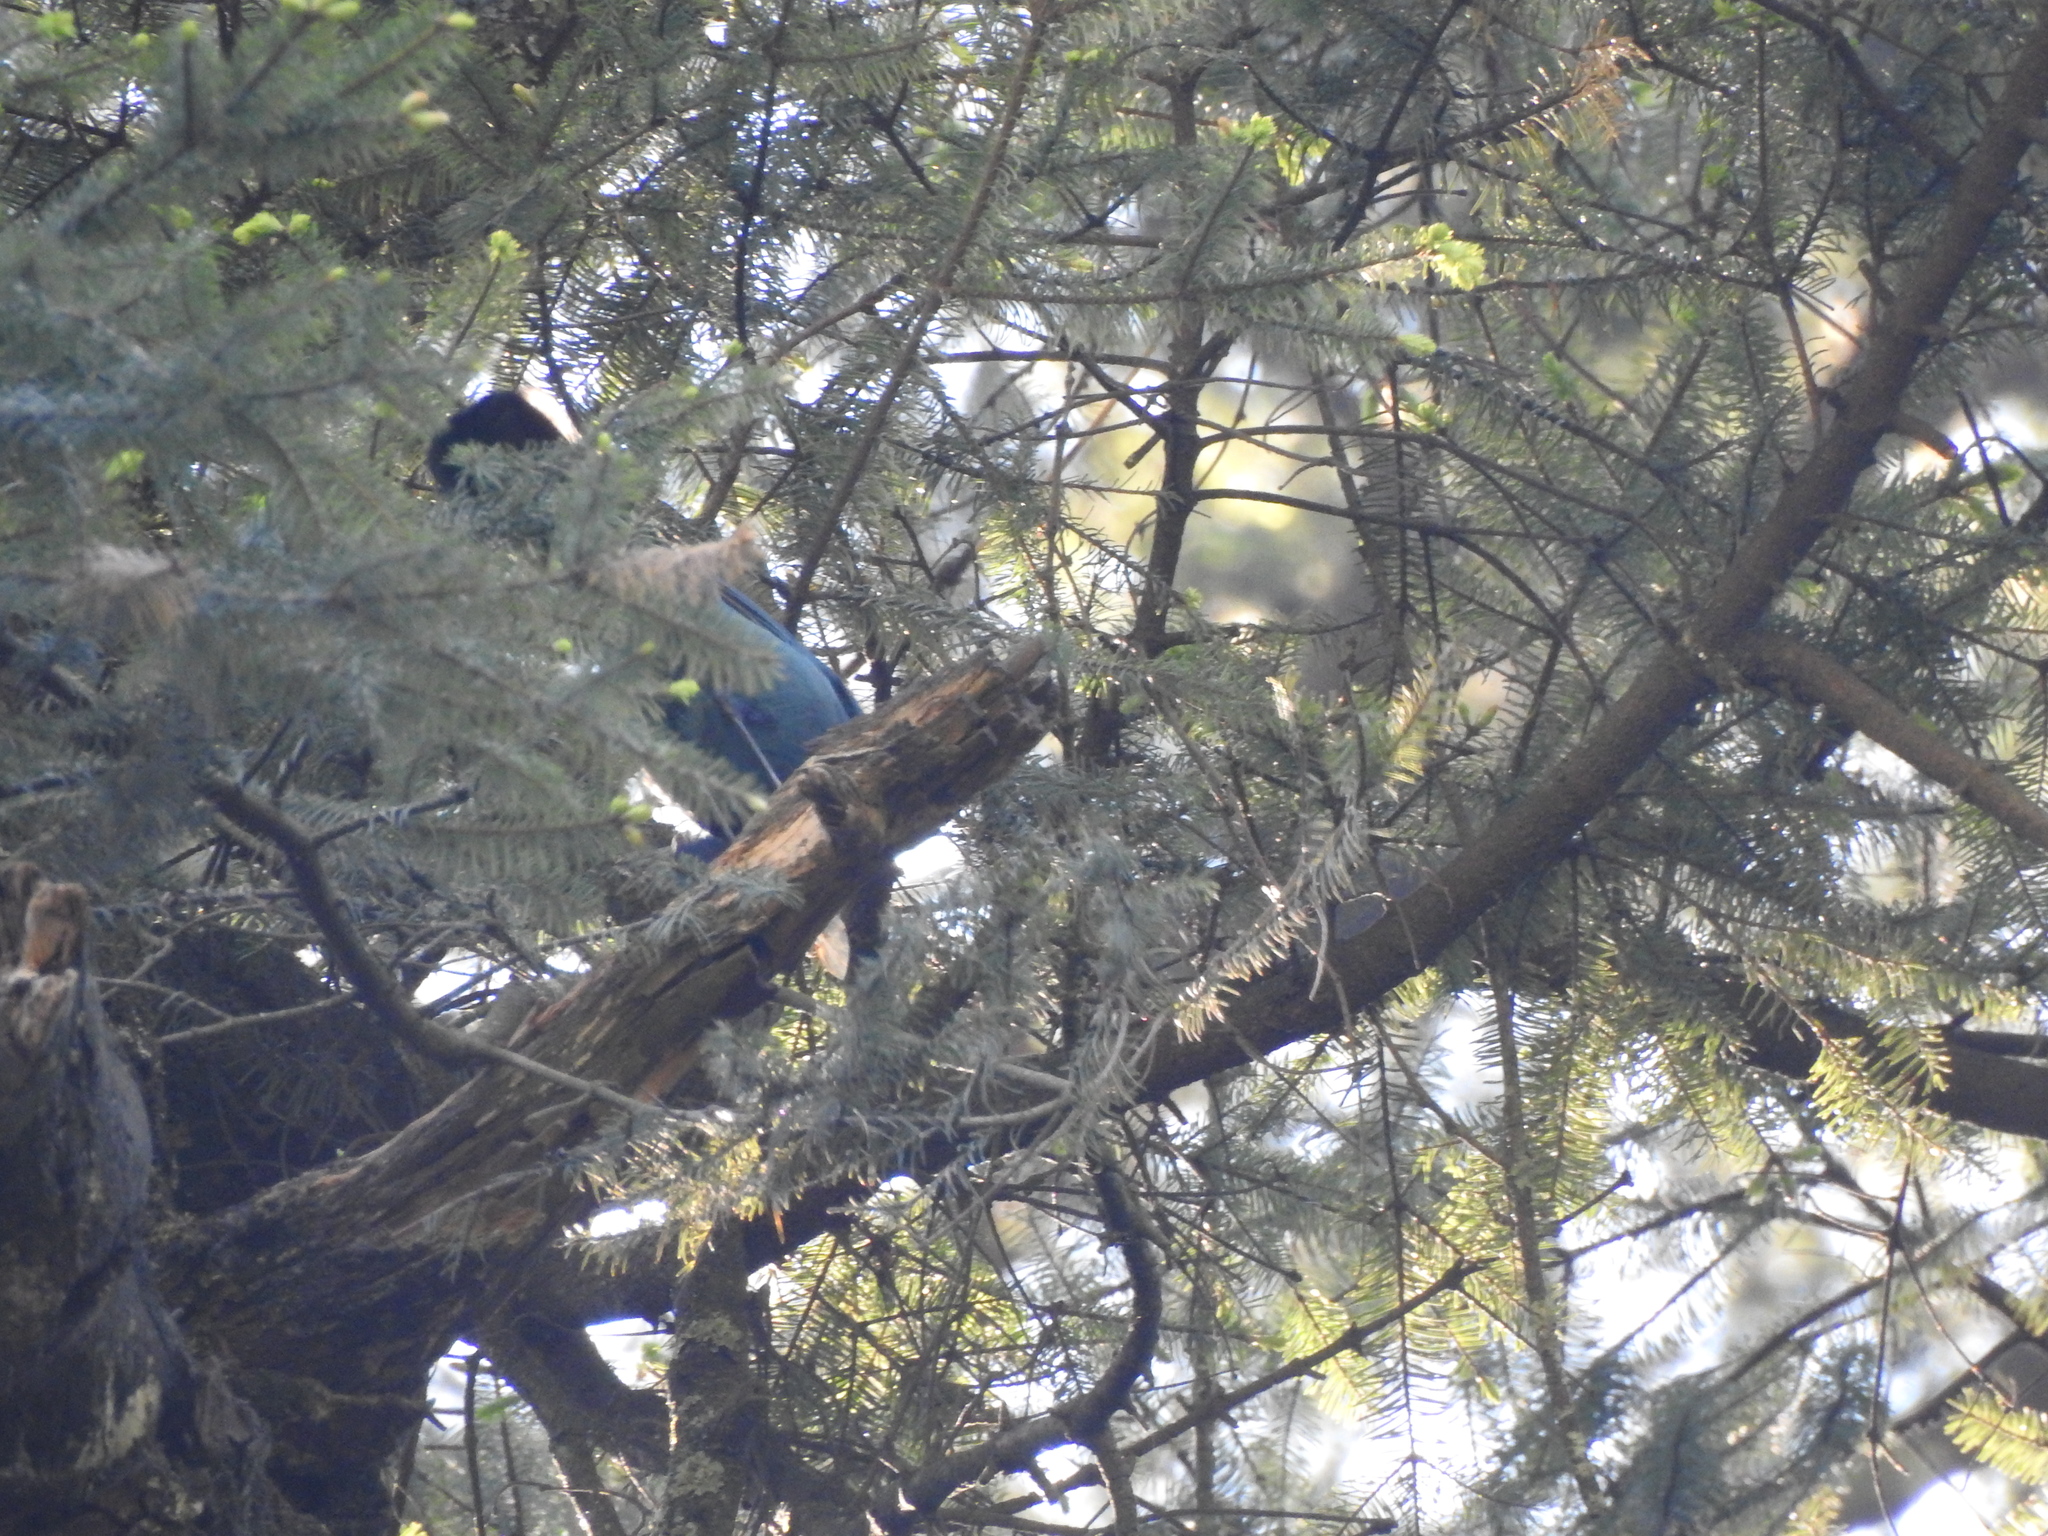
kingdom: Animalia
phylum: Chordata
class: Aves
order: Passeriformes
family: Corvidae
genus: Cyanocitta
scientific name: Cyanocitta stelleri
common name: Steller's jay
